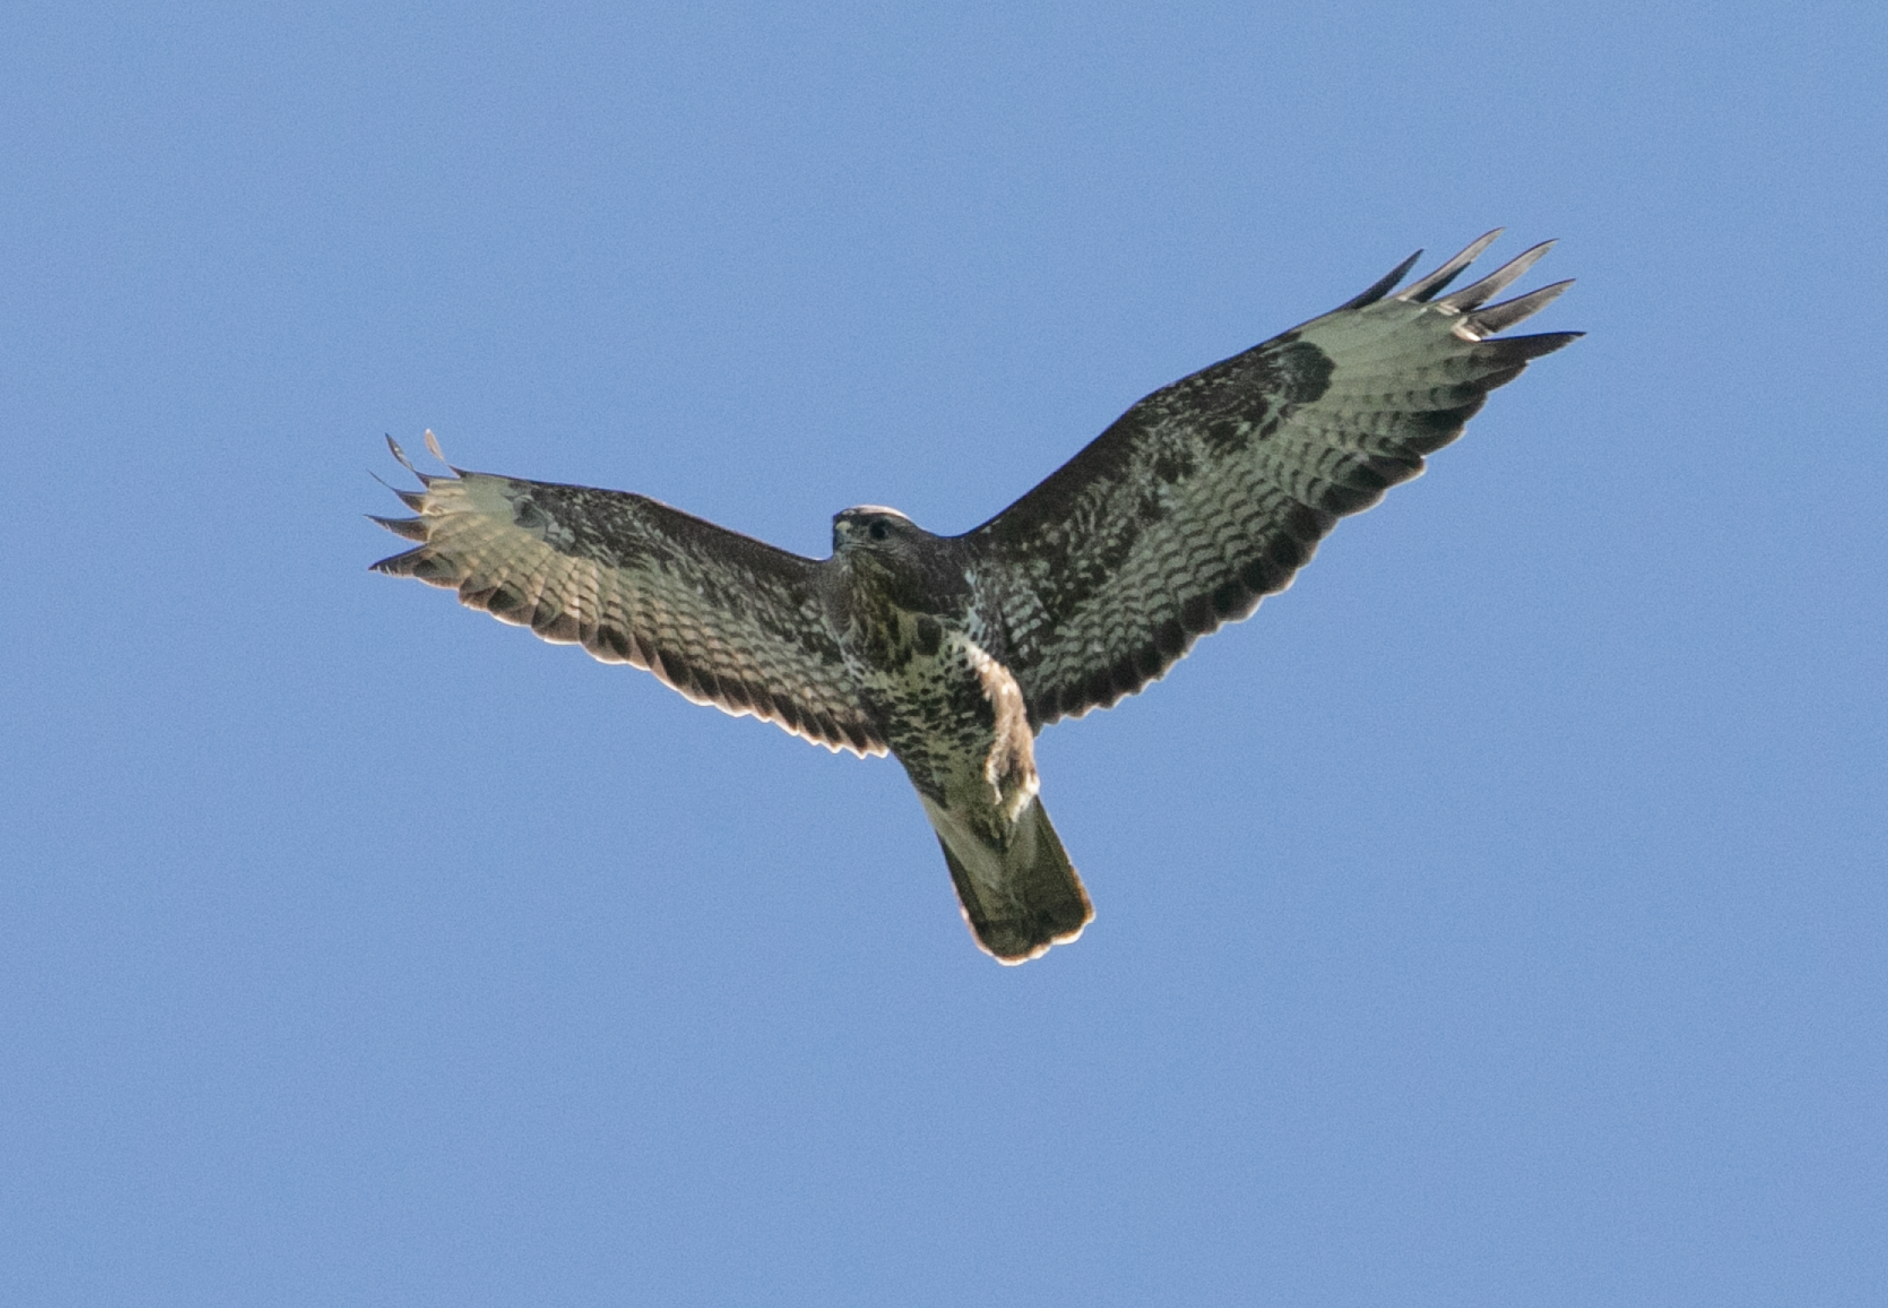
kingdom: Animalia
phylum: Chordata
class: Aves
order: Accipitriformes
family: Accipitridae
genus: Buteo
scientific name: Buteo buteo
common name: Common buzzard
